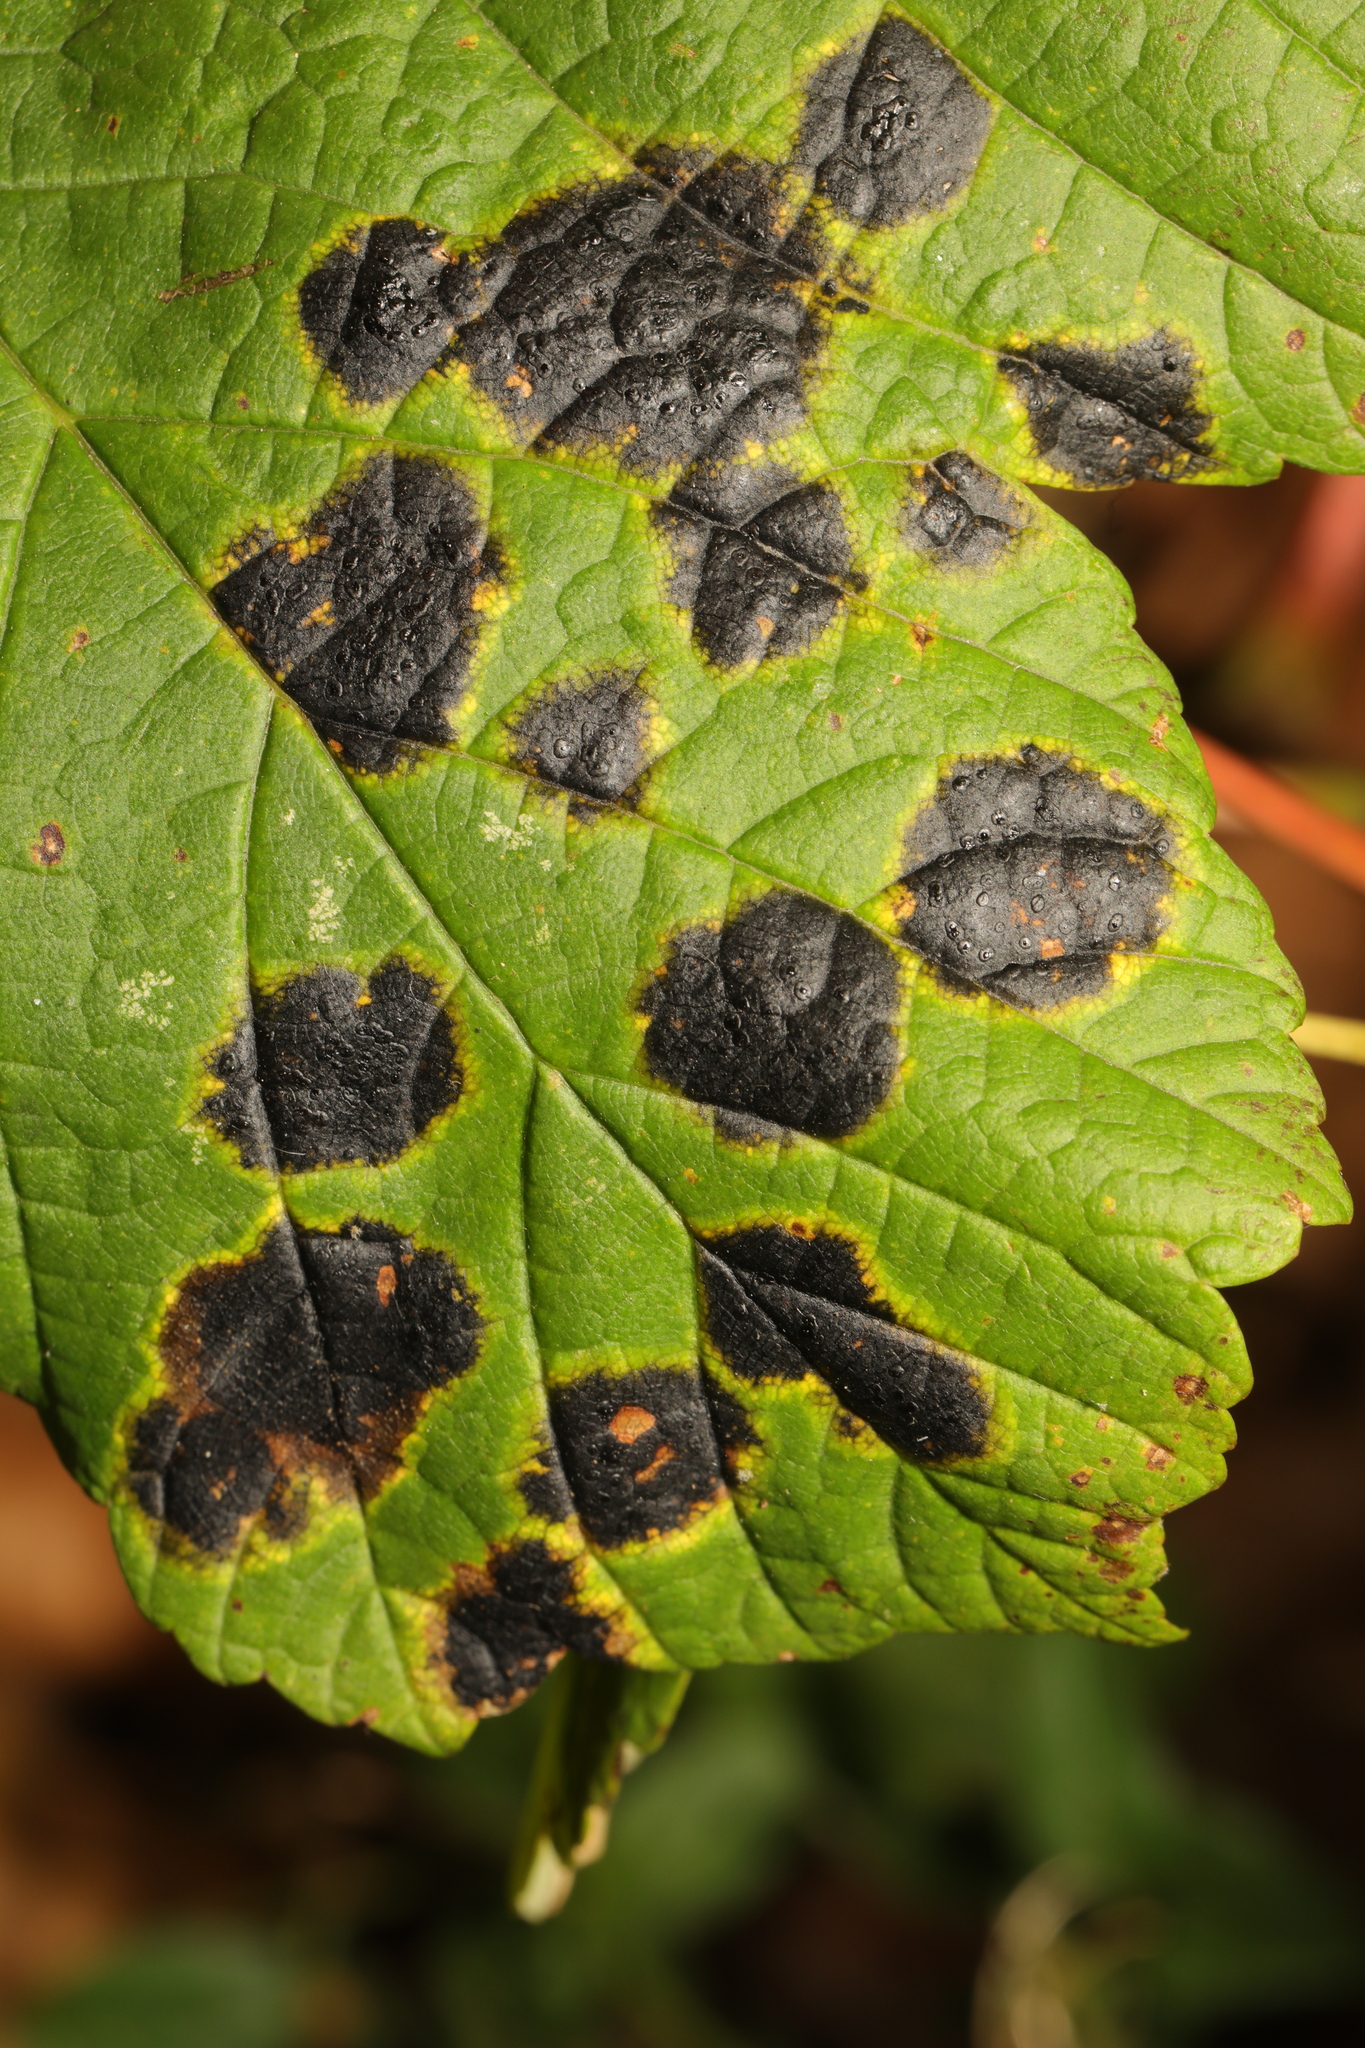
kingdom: Fungi
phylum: Ascomycota
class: Leotiomycetes
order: Rhytismatales
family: Rhytismataceae
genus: Rhytisma
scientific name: Rhytisma acerinum
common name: European tar spot
